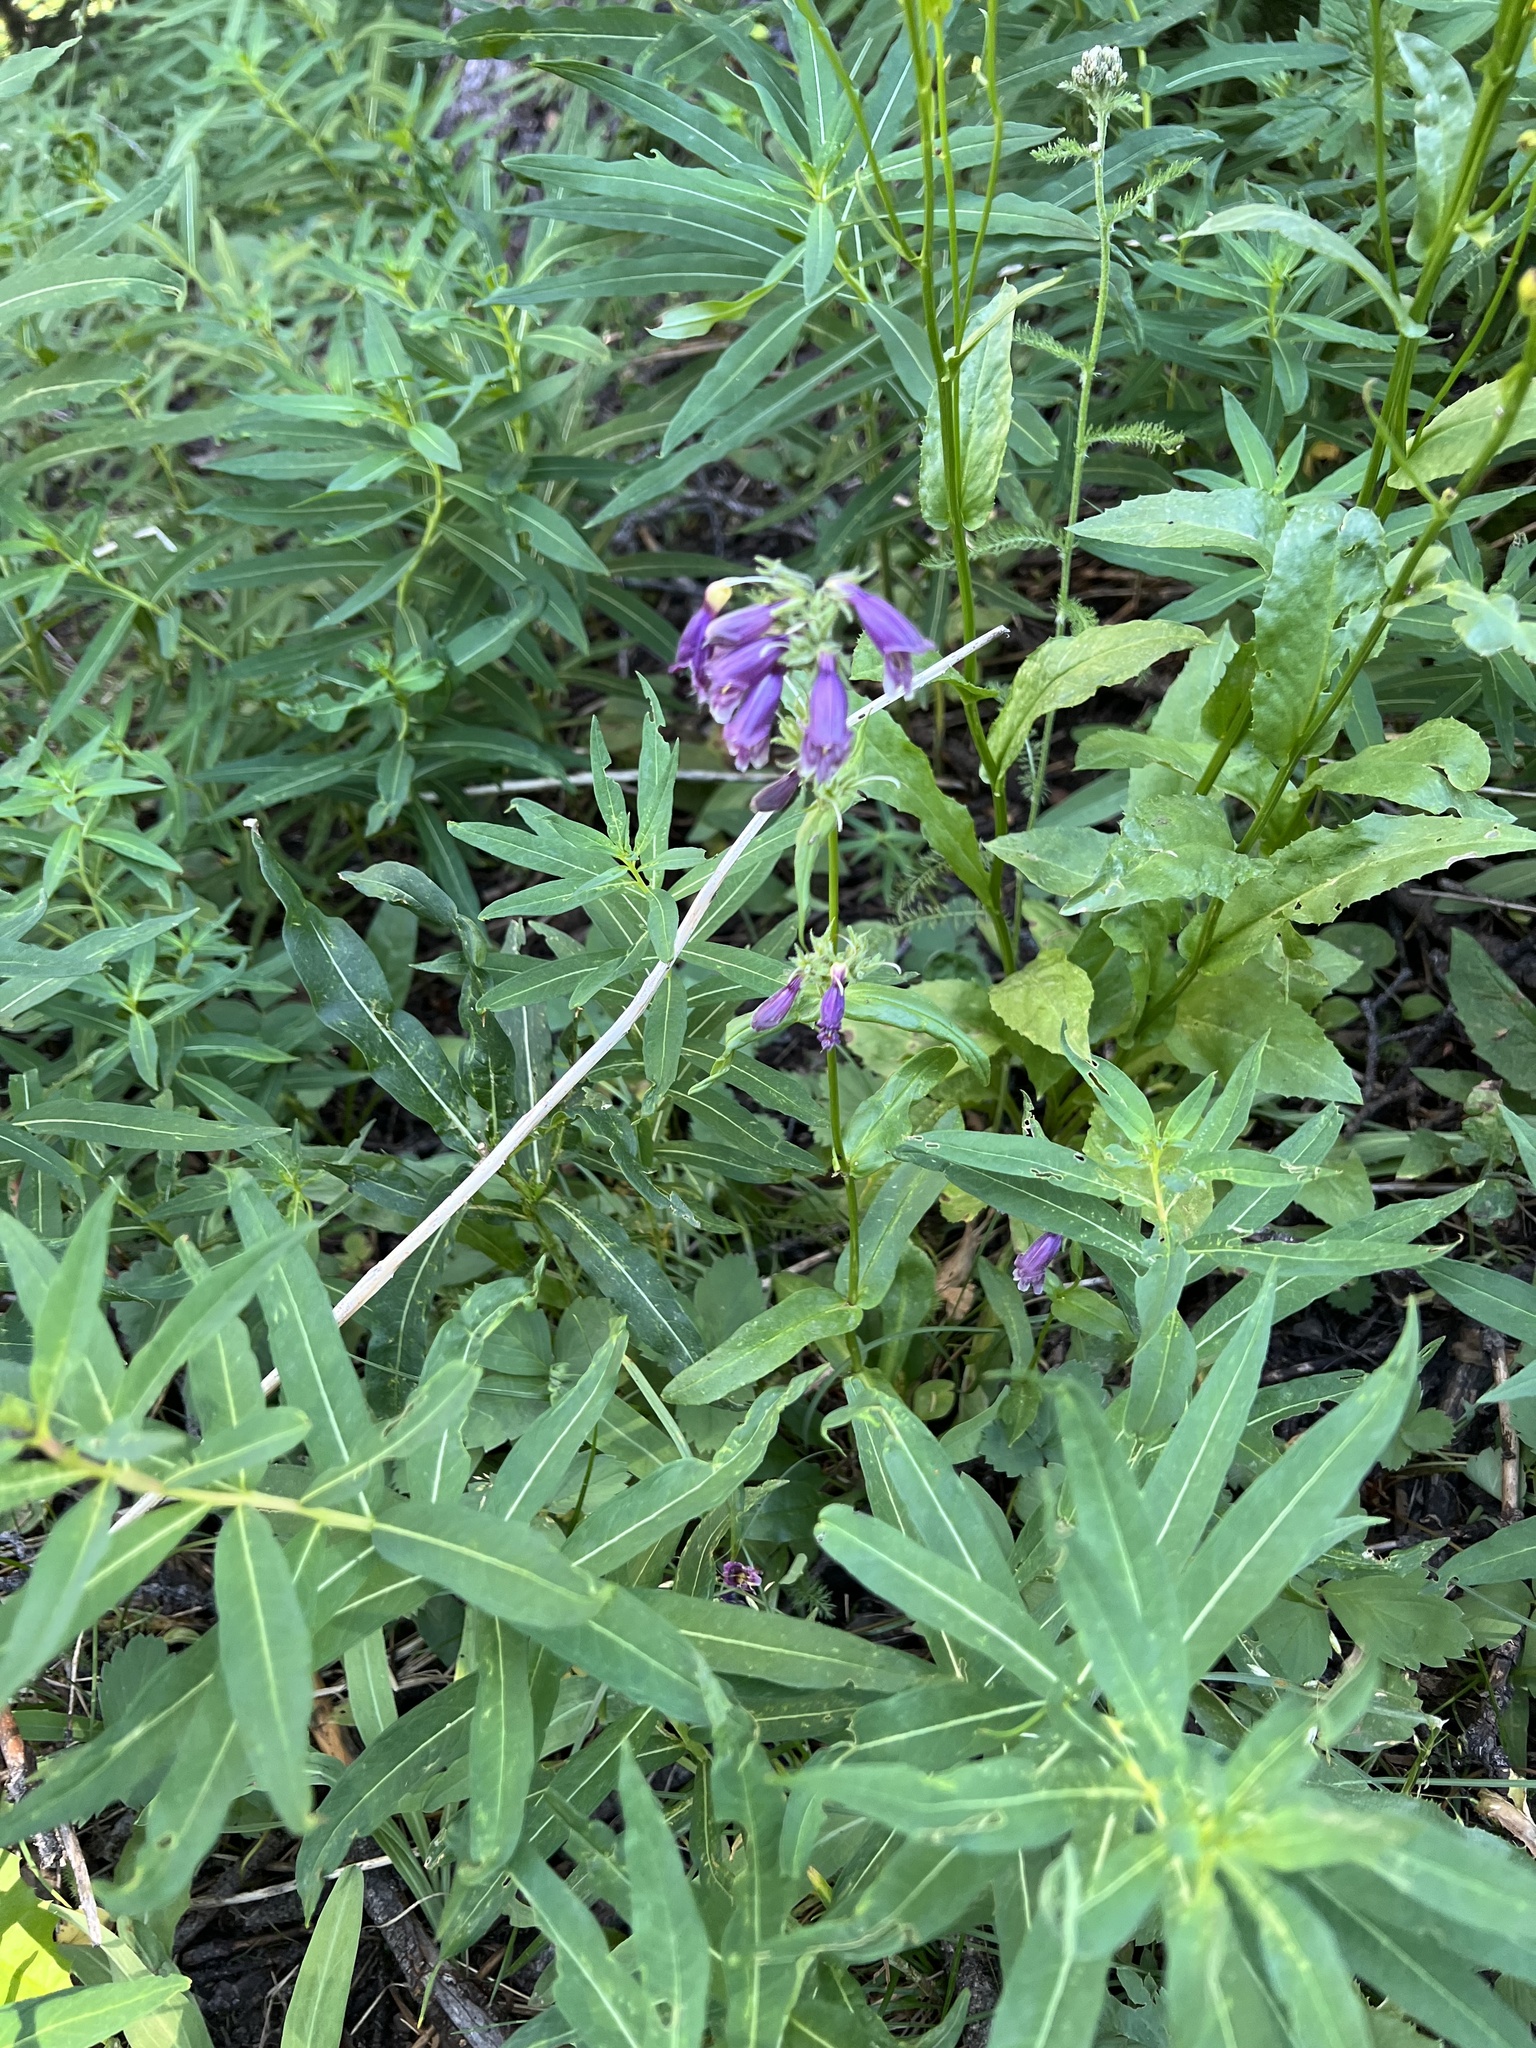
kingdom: Plantae
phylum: Tracheophyta
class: Magnoliopsida
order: Lamiales
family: Plantaginaceae
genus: Penstemon
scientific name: Penstemon whippleanus
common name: Whipple's penstemon
